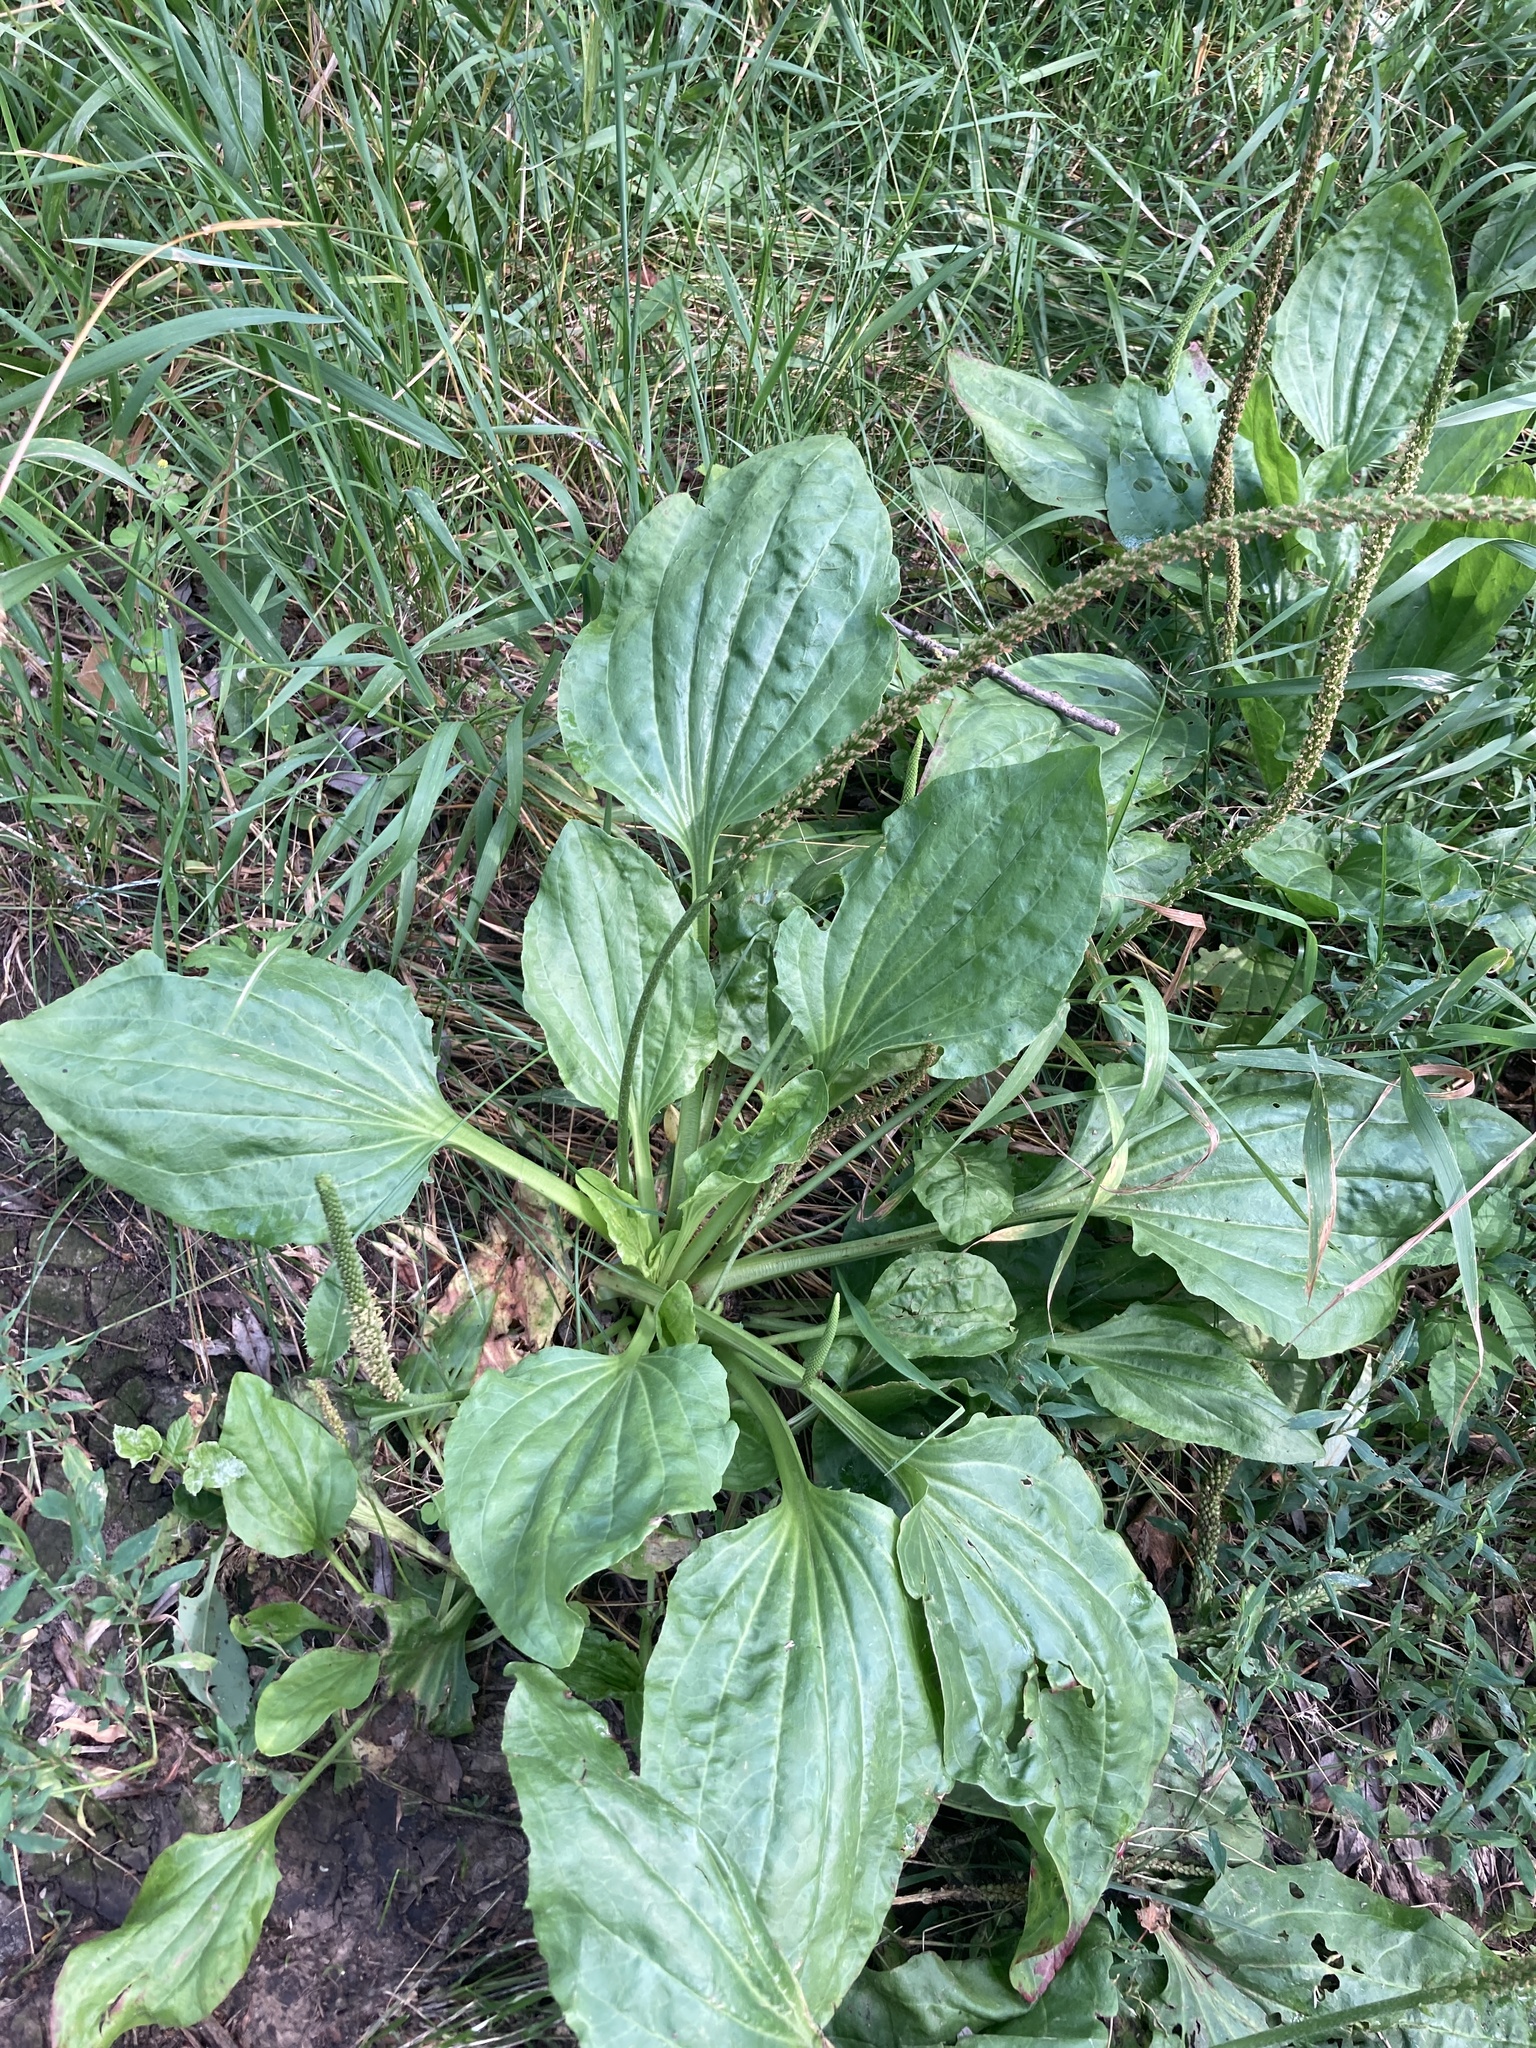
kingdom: Plantae
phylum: Tracheophyta
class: Magnoliopsida
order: Lamiales
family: Plantaginaceae
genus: Plantago
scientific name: Plantago major
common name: Common plantain
